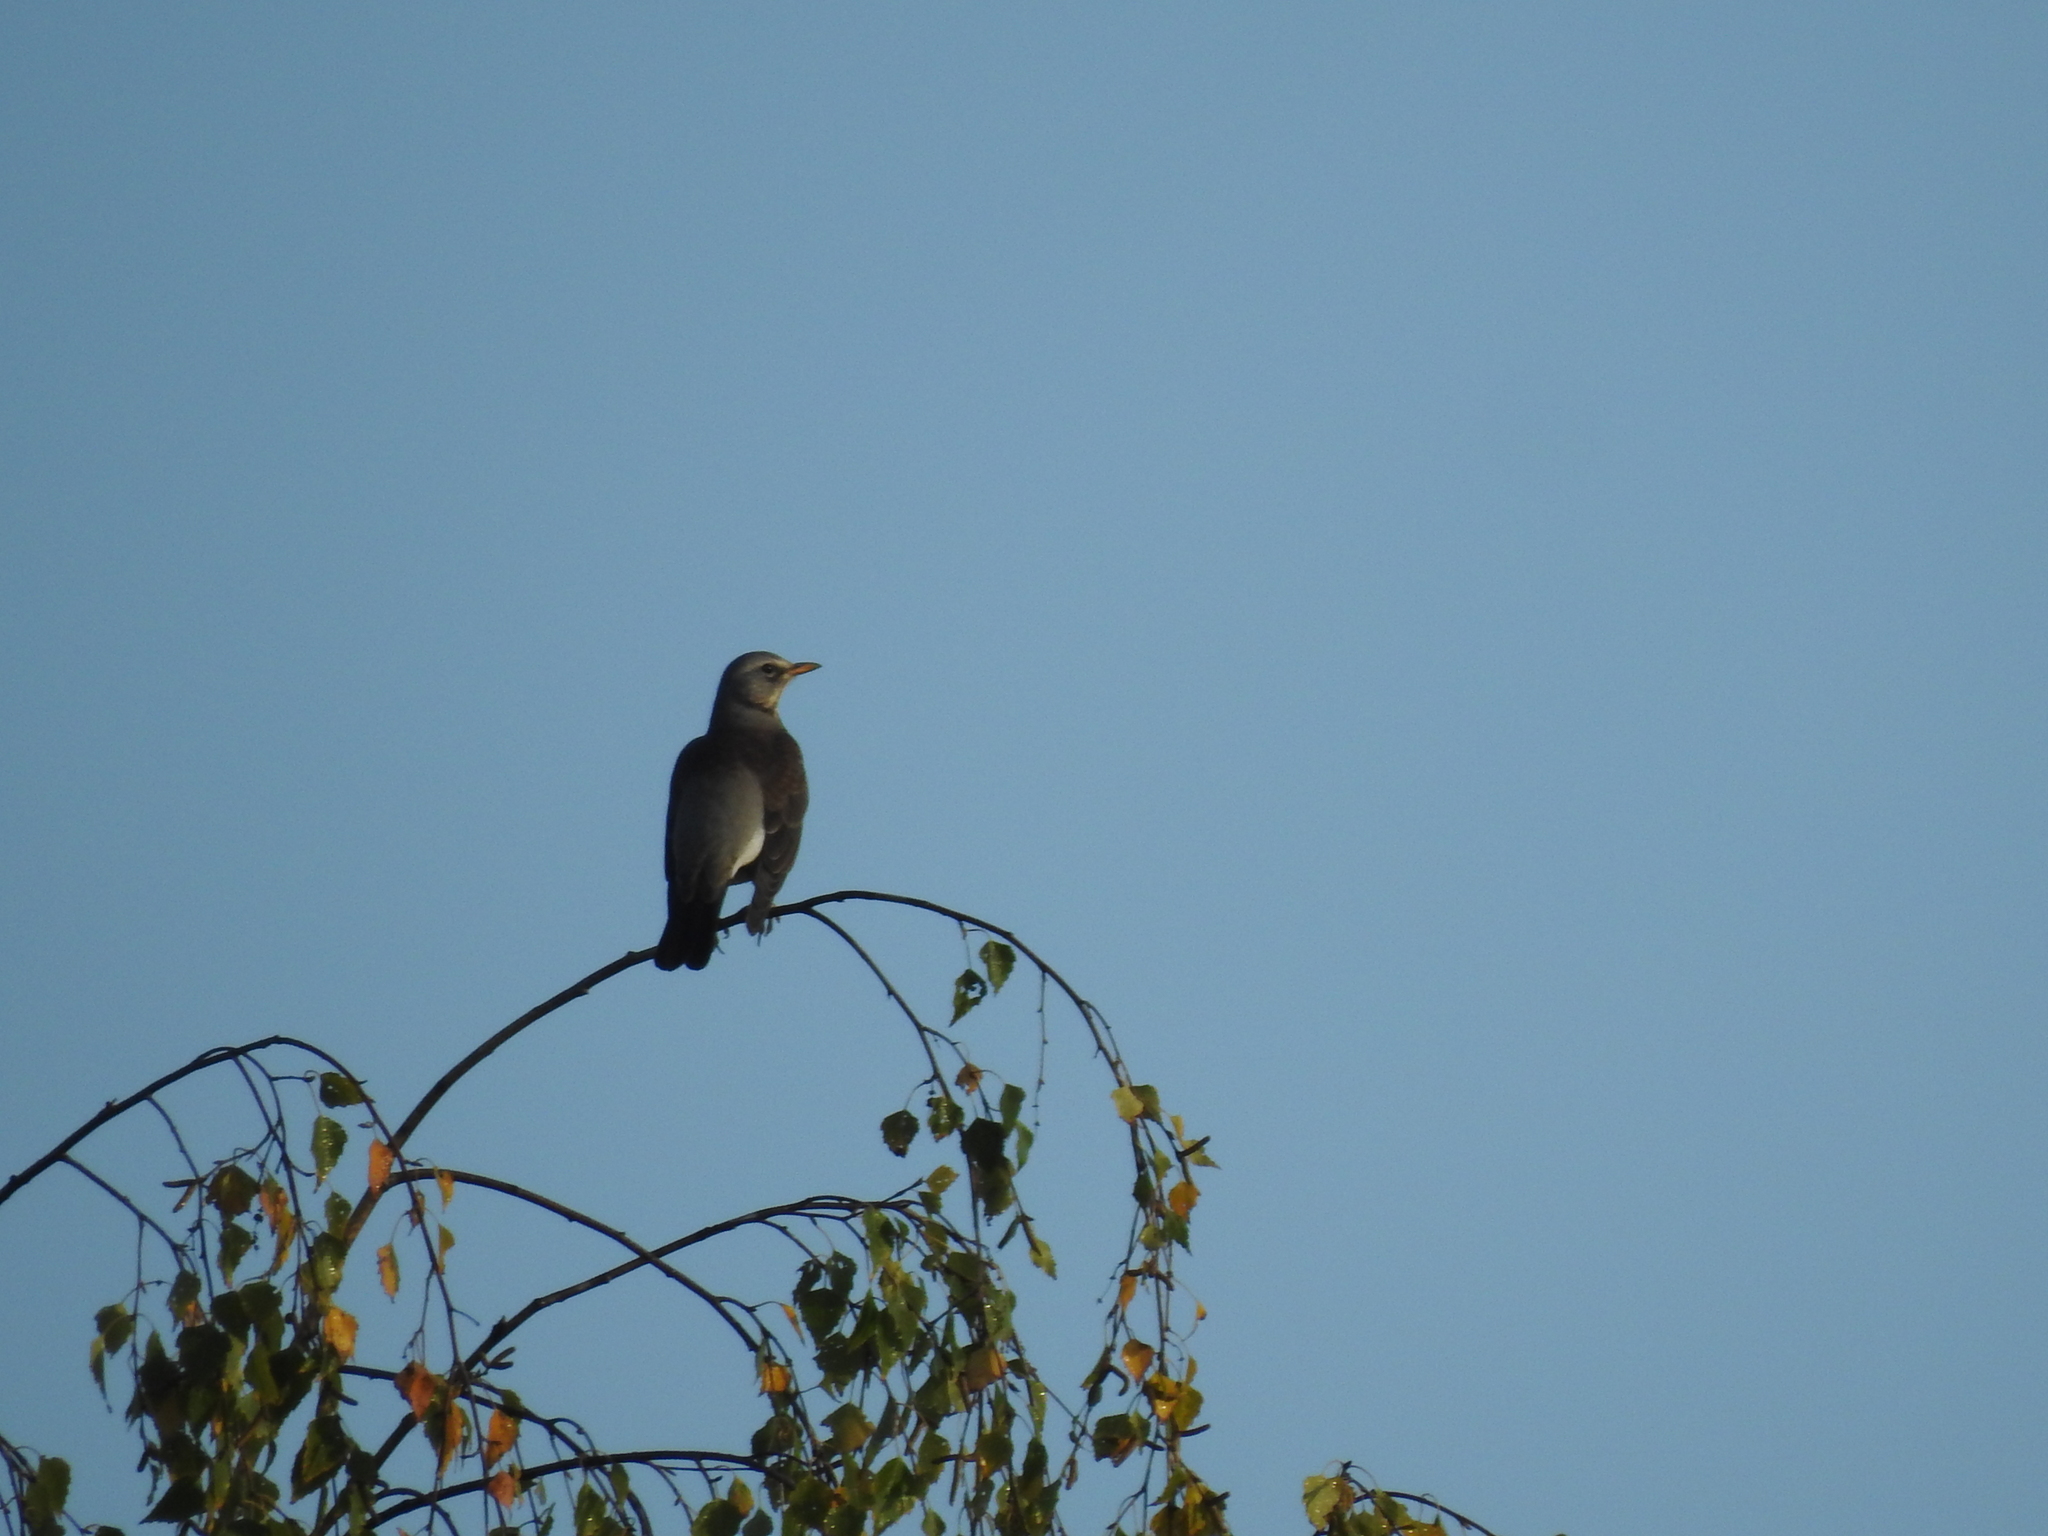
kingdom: Animalia
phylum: Chordata
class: Aves
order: Passeriformes
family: Turdidae
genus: Turdus
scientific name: Turdus pilaris
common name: Fieldfare
